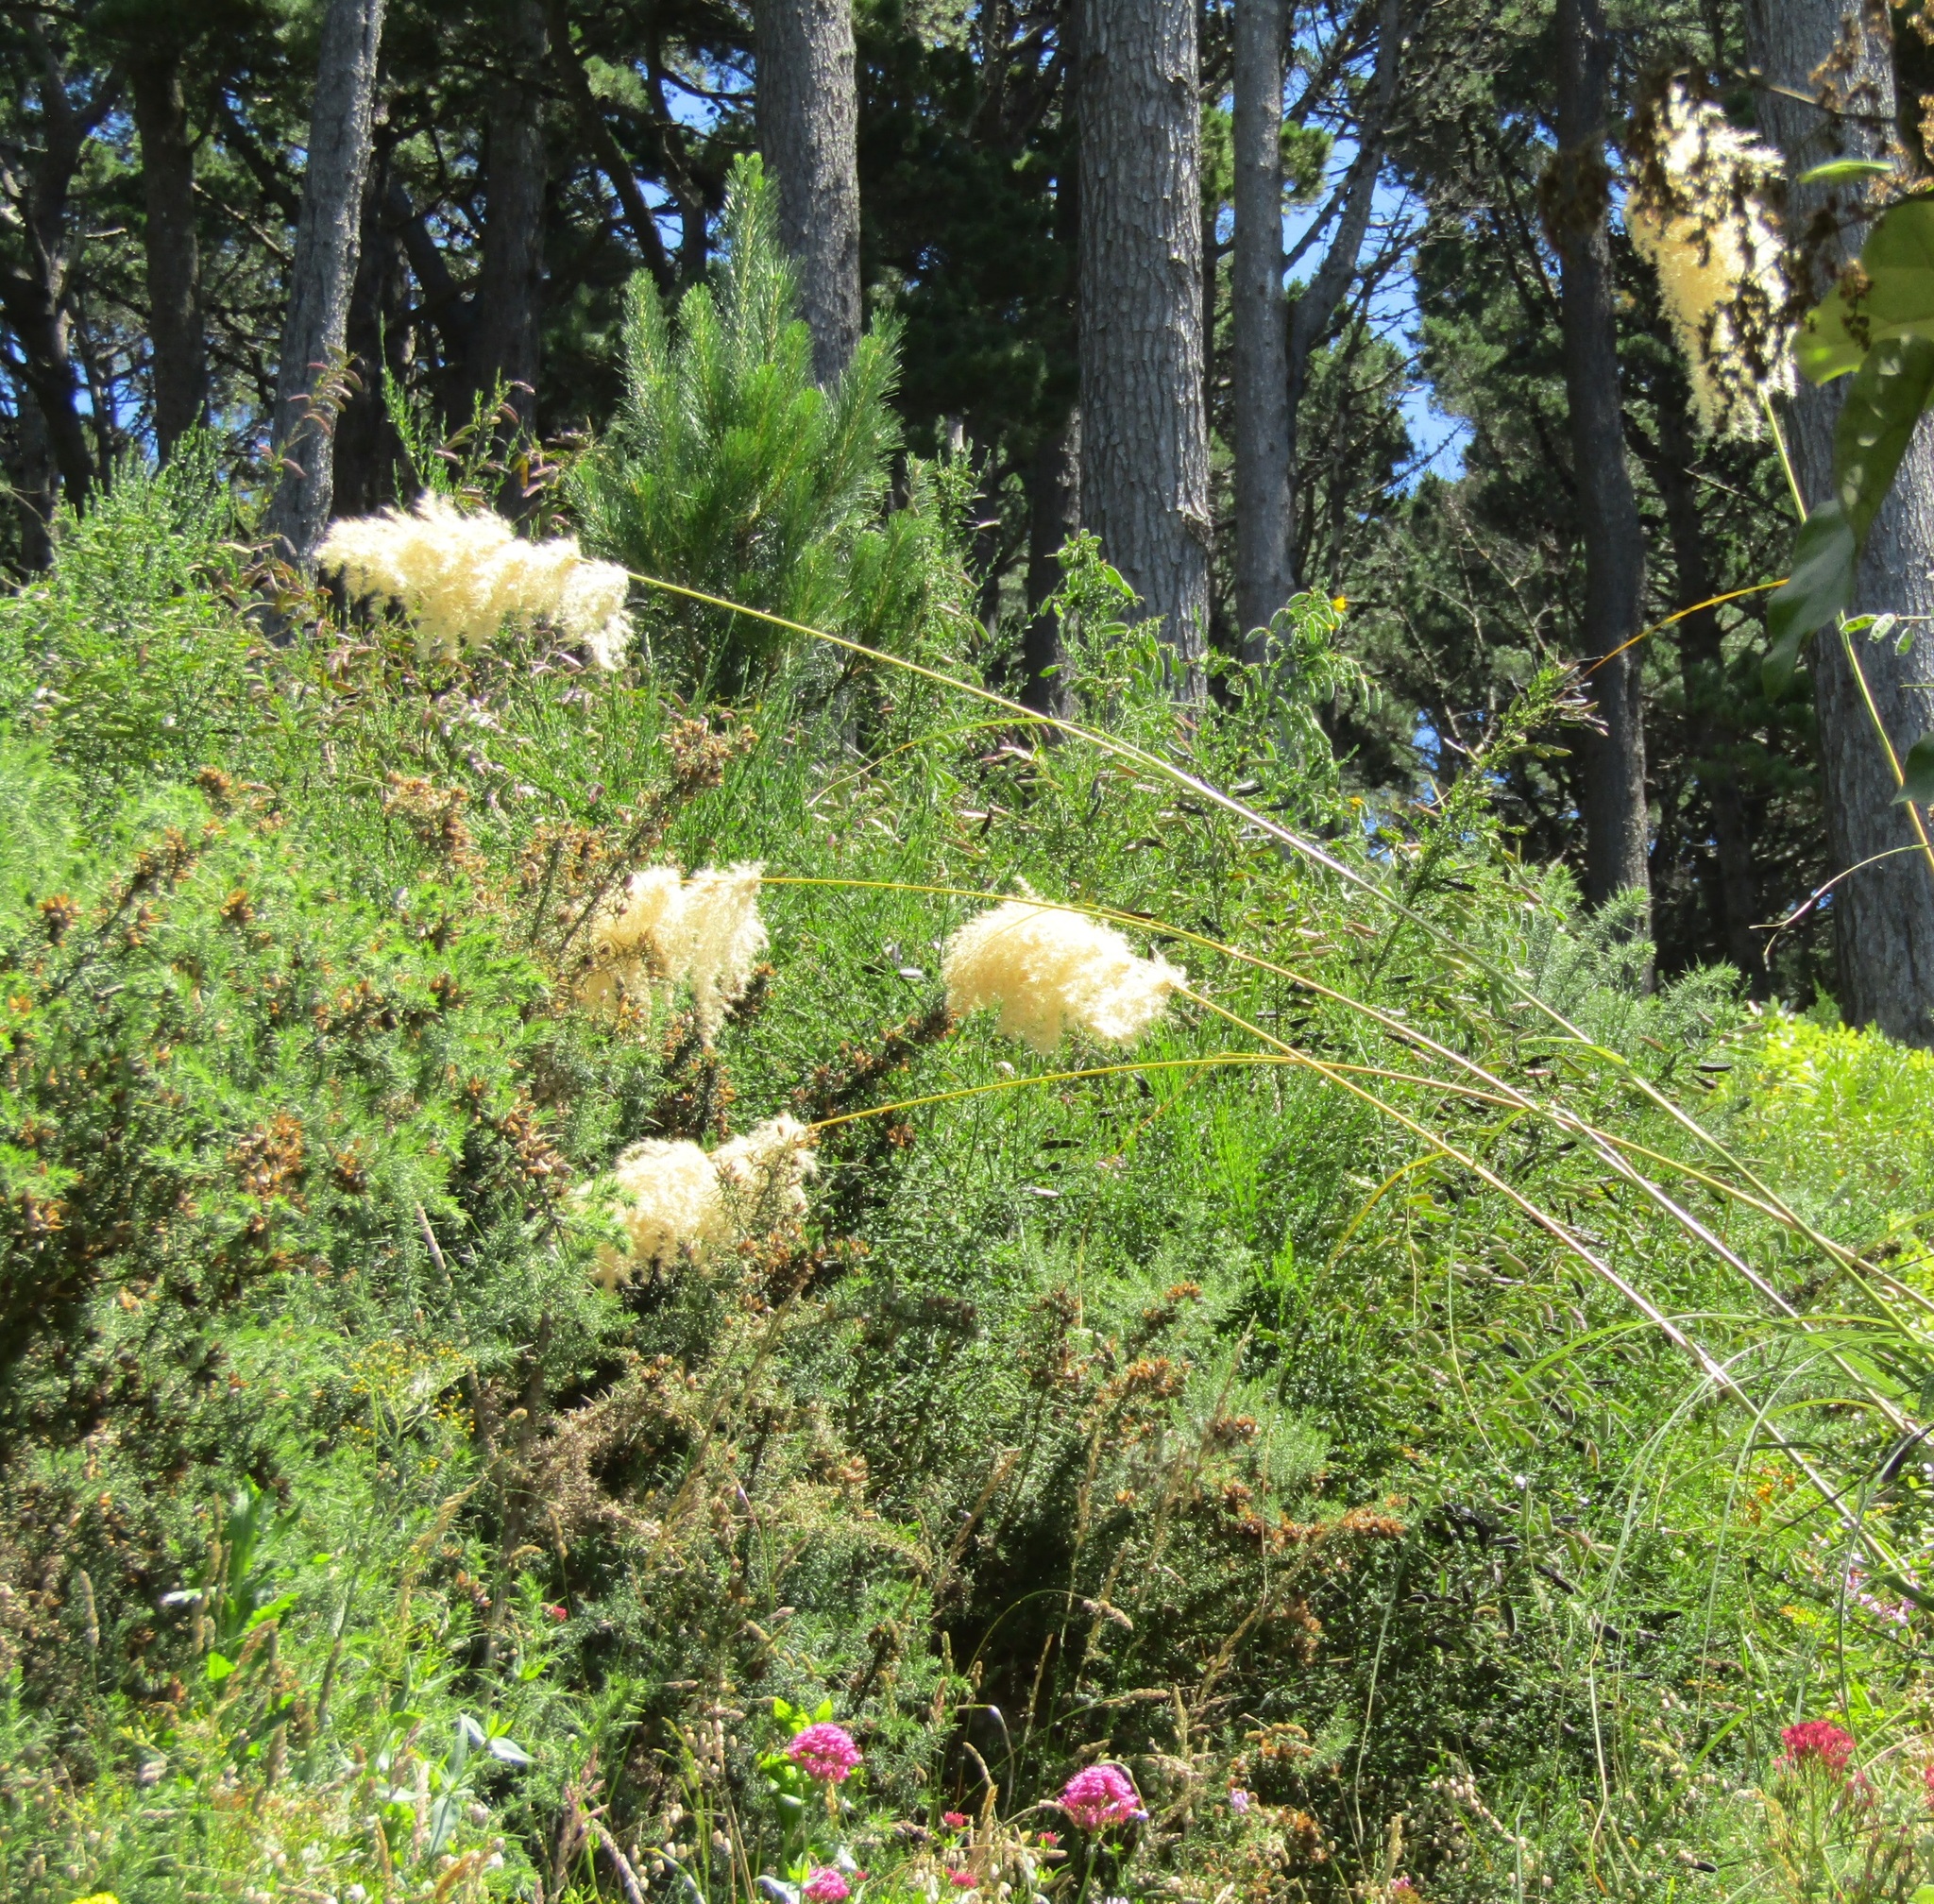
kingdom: Plantae
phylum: Tracheophyta
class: Pinopsida
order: Pinales
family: Pinaceae
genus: Pinus
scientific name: Pinus radiata
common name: Monterey pine
